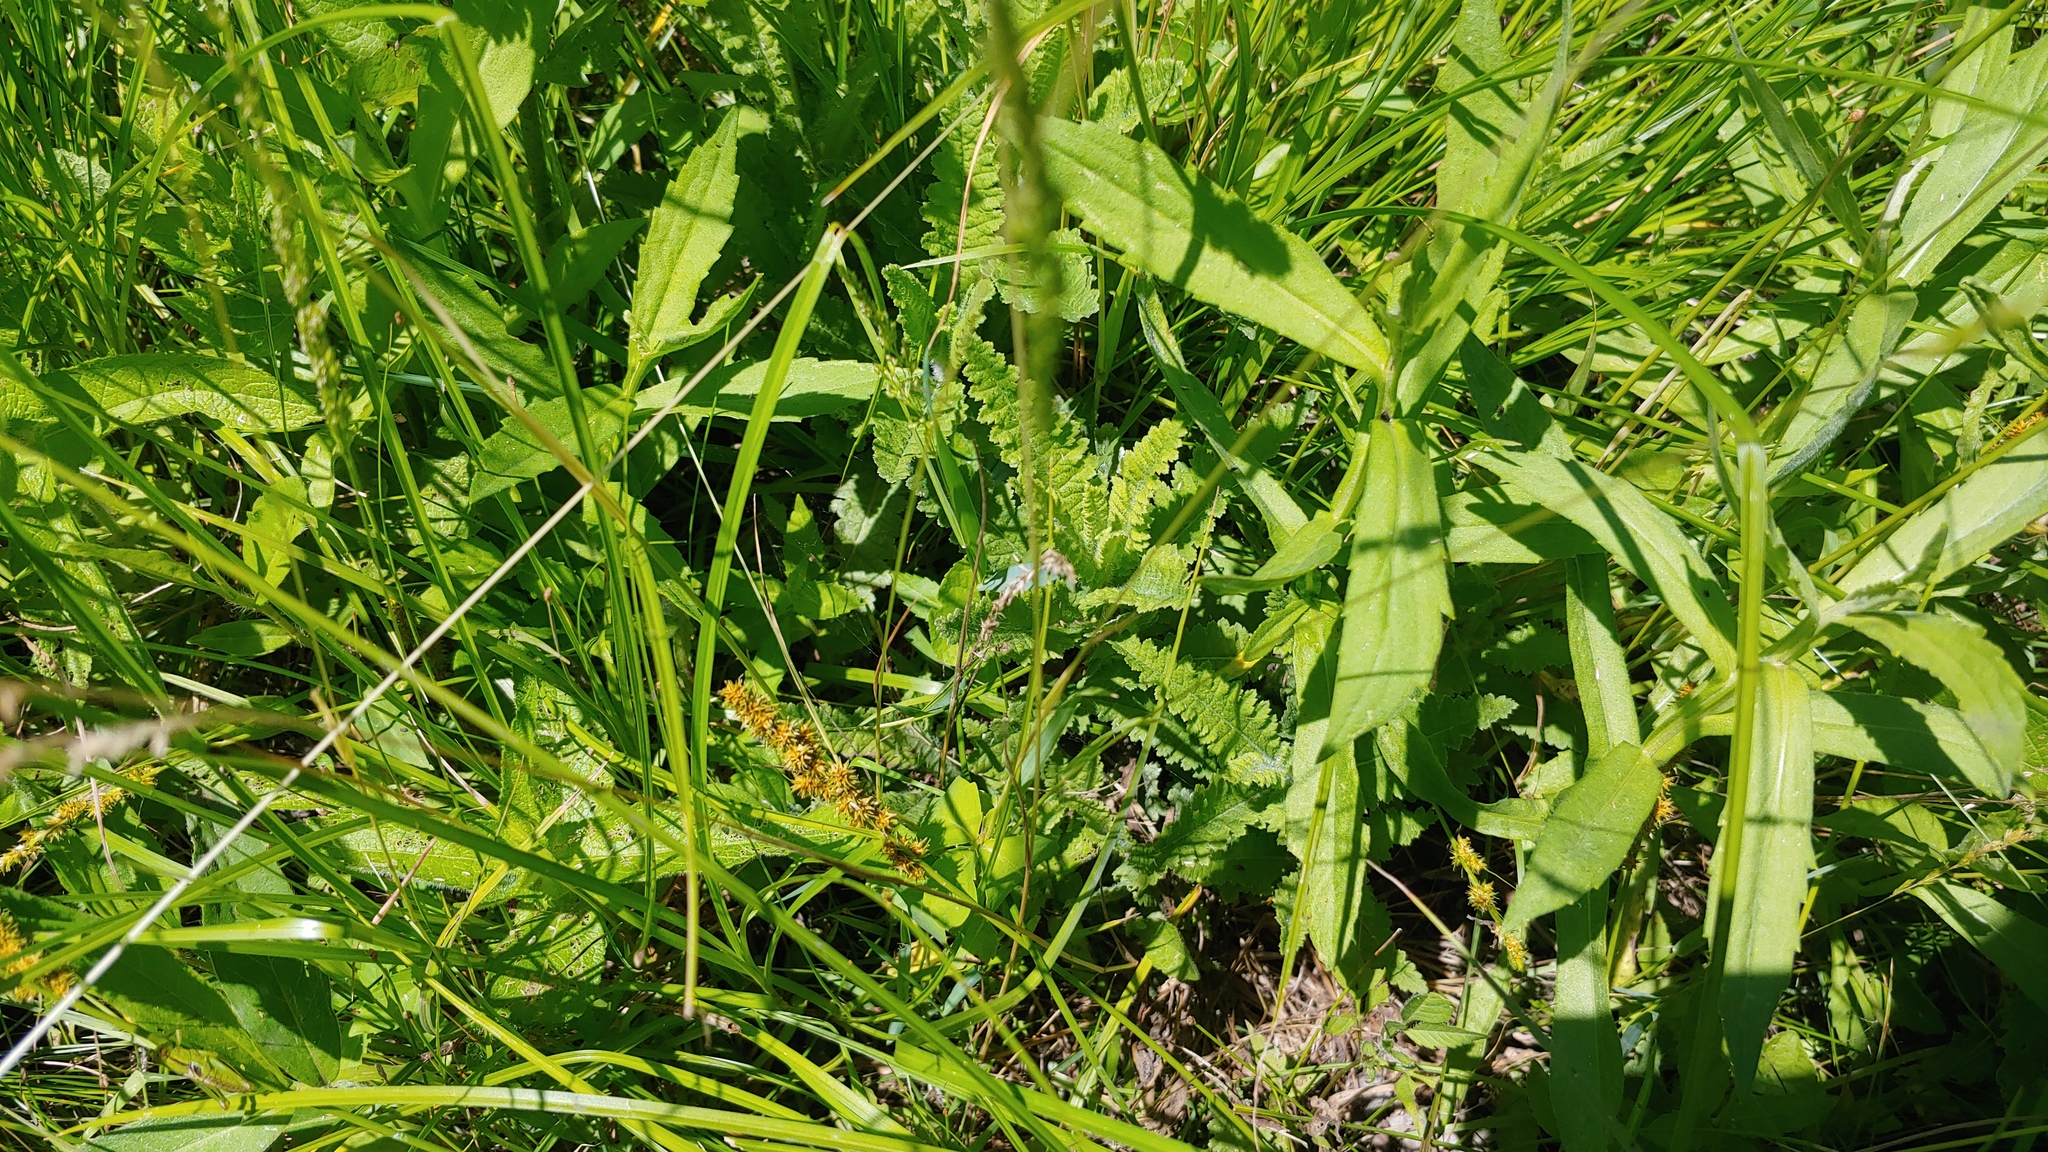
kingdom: Plantae
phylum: Tracheophyta
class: Magnoliopsida
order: Lamiales
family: Orobanchaceae
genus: Pedicularis
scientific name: Pedicularis lanceolata
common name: Swamp lousewort
